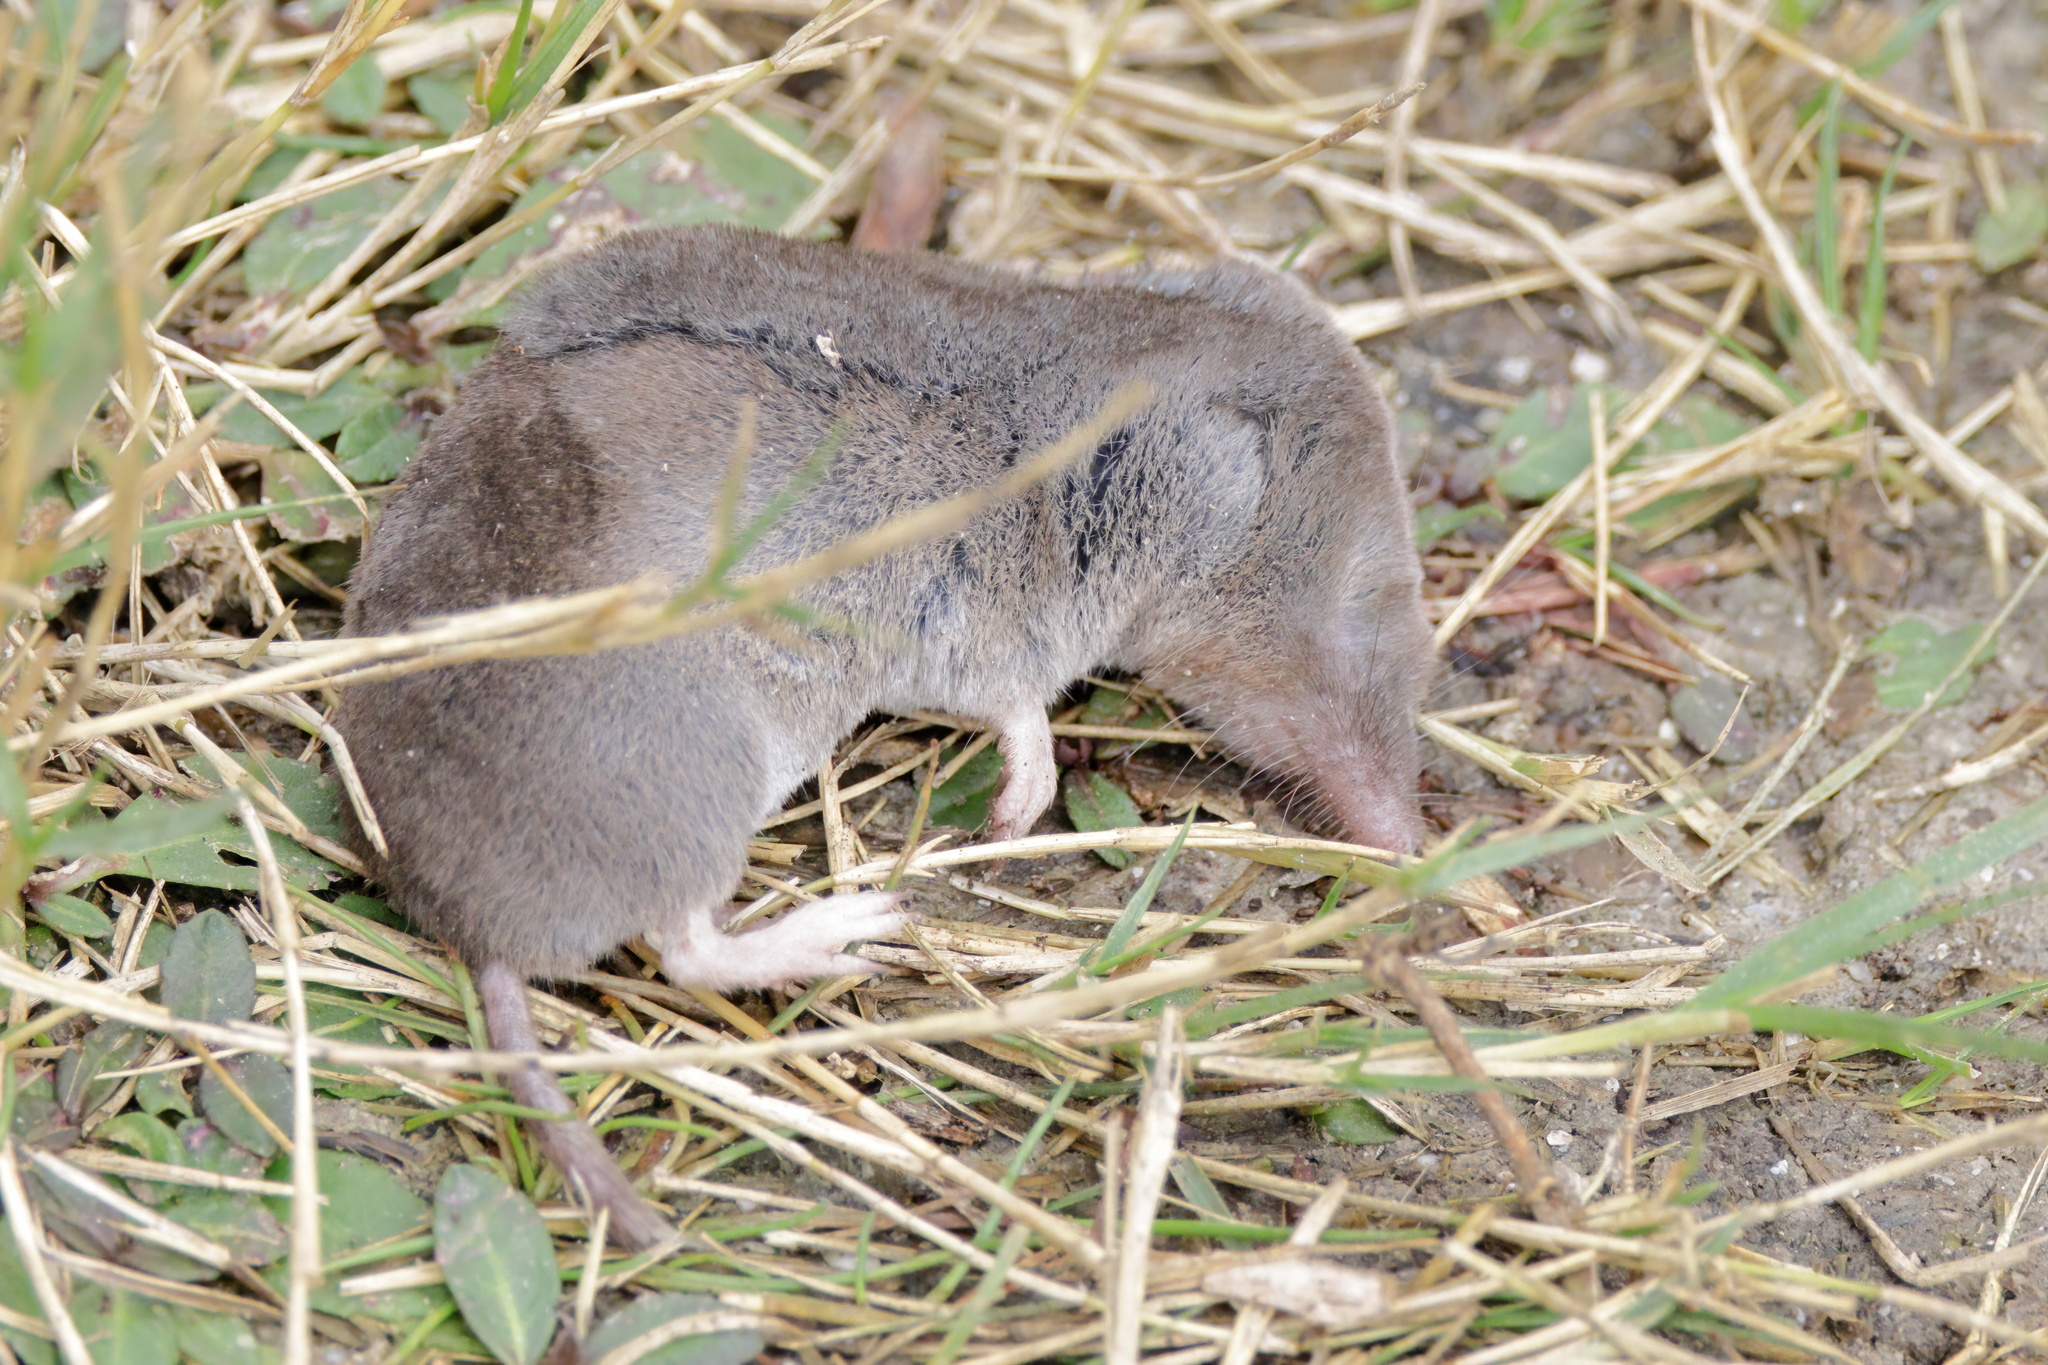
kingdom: Animalia
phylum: Chordata
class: Mammalia
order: Soricomorpha
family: Soricidae
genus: Cryptotis
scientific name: Cryptotis parva
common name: North american least shrew
